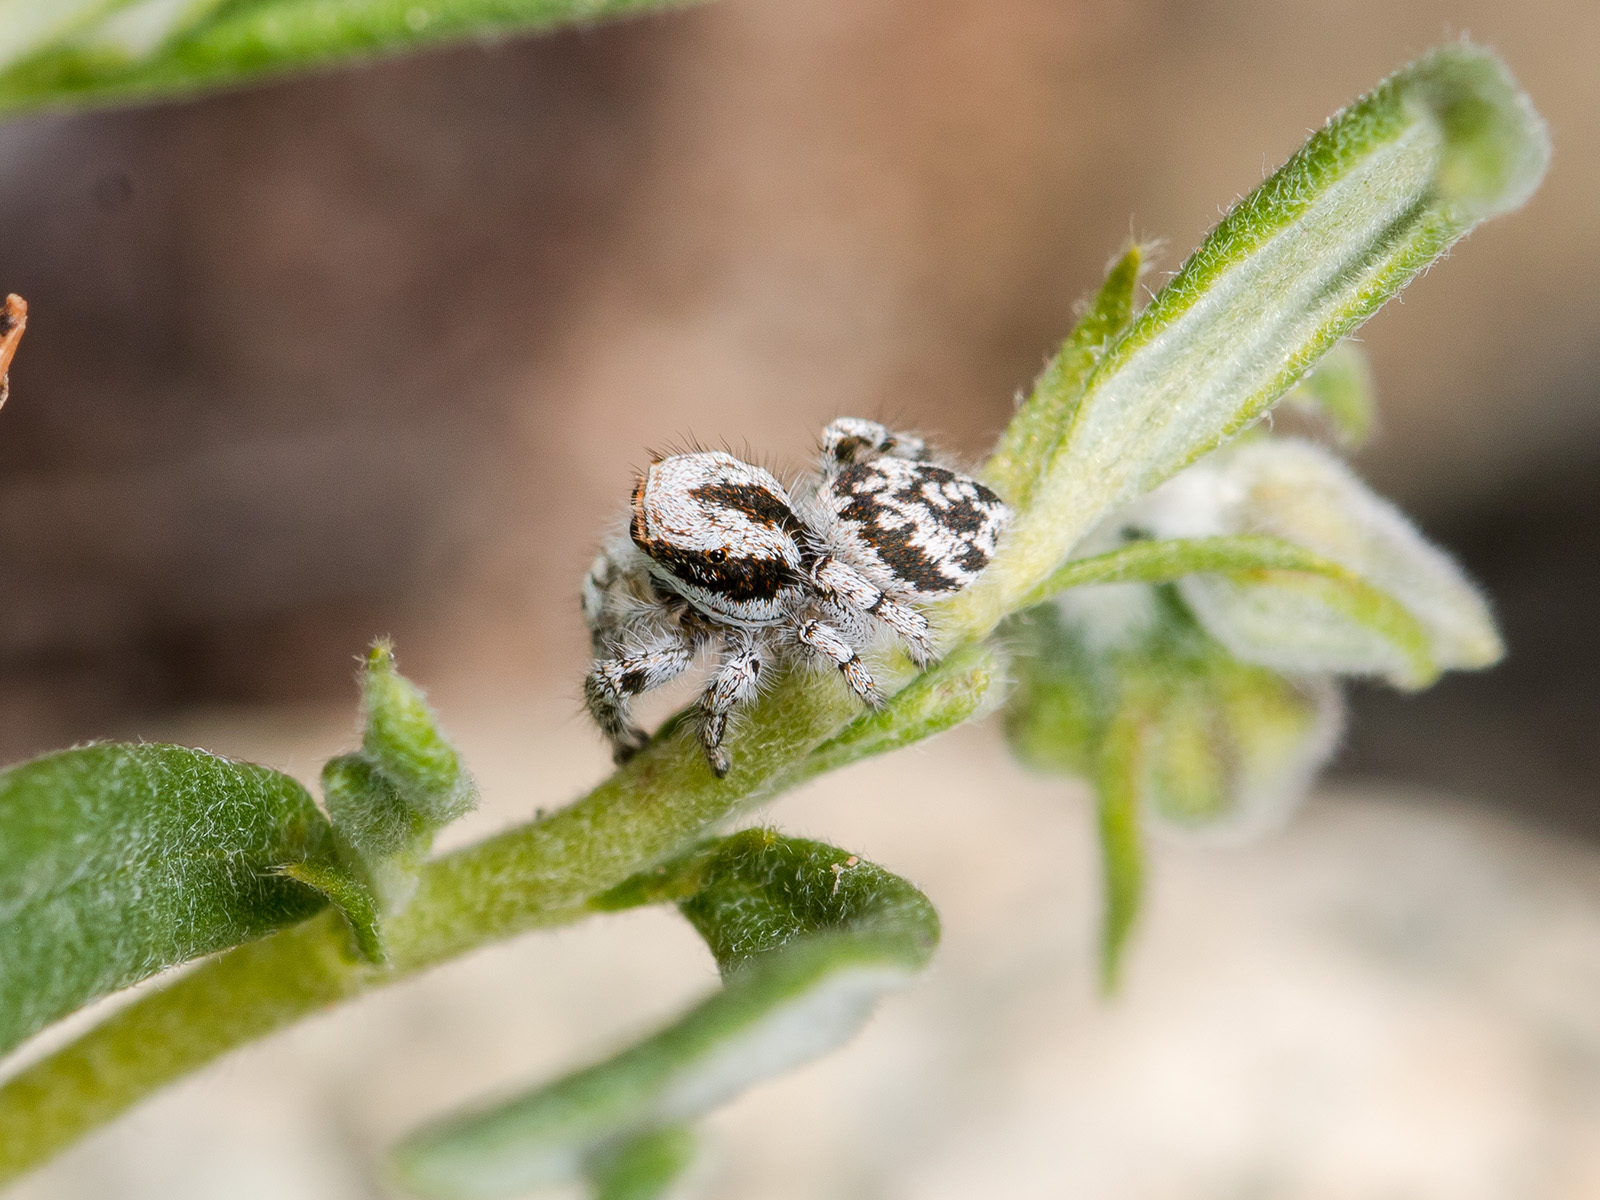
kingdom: Animalia
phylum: Arthropoda
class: Arachnida
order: Araneae
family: Salticidae
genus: Pseudomogrus
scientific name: Pseudomogrus dalaensis
